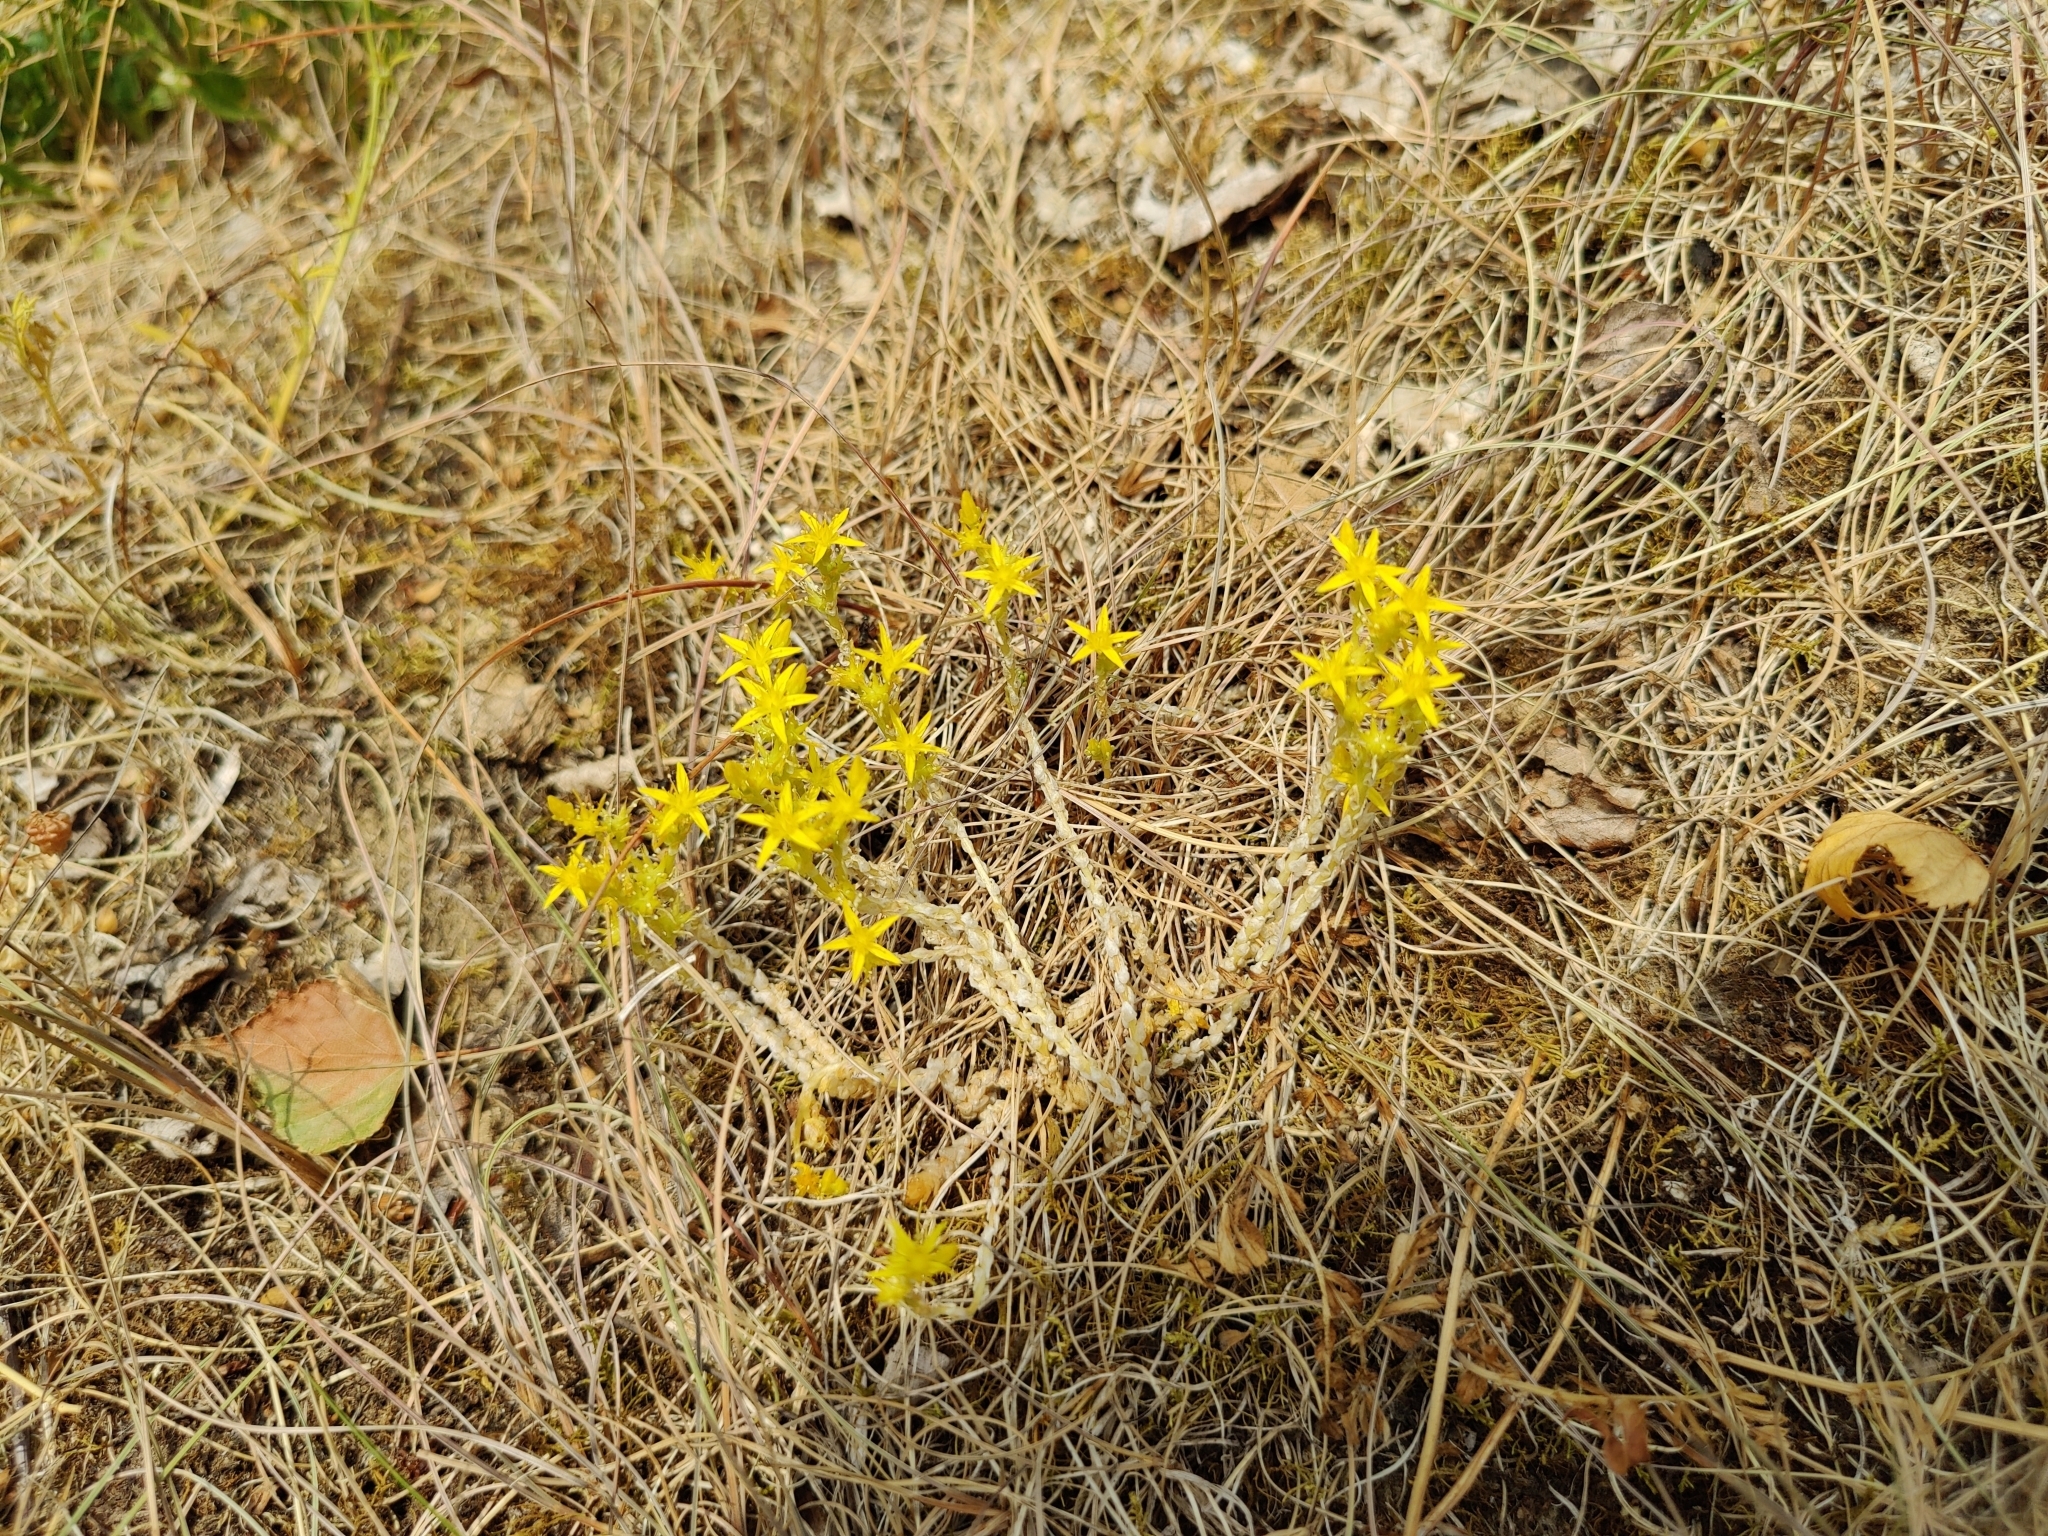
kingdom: Plantae
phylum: Tracheophyta
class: Magnoliopsida
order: Saxifragales
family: Crassulaceae
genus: Sedum
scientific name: Sedum acre
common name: Biting stonecrop
